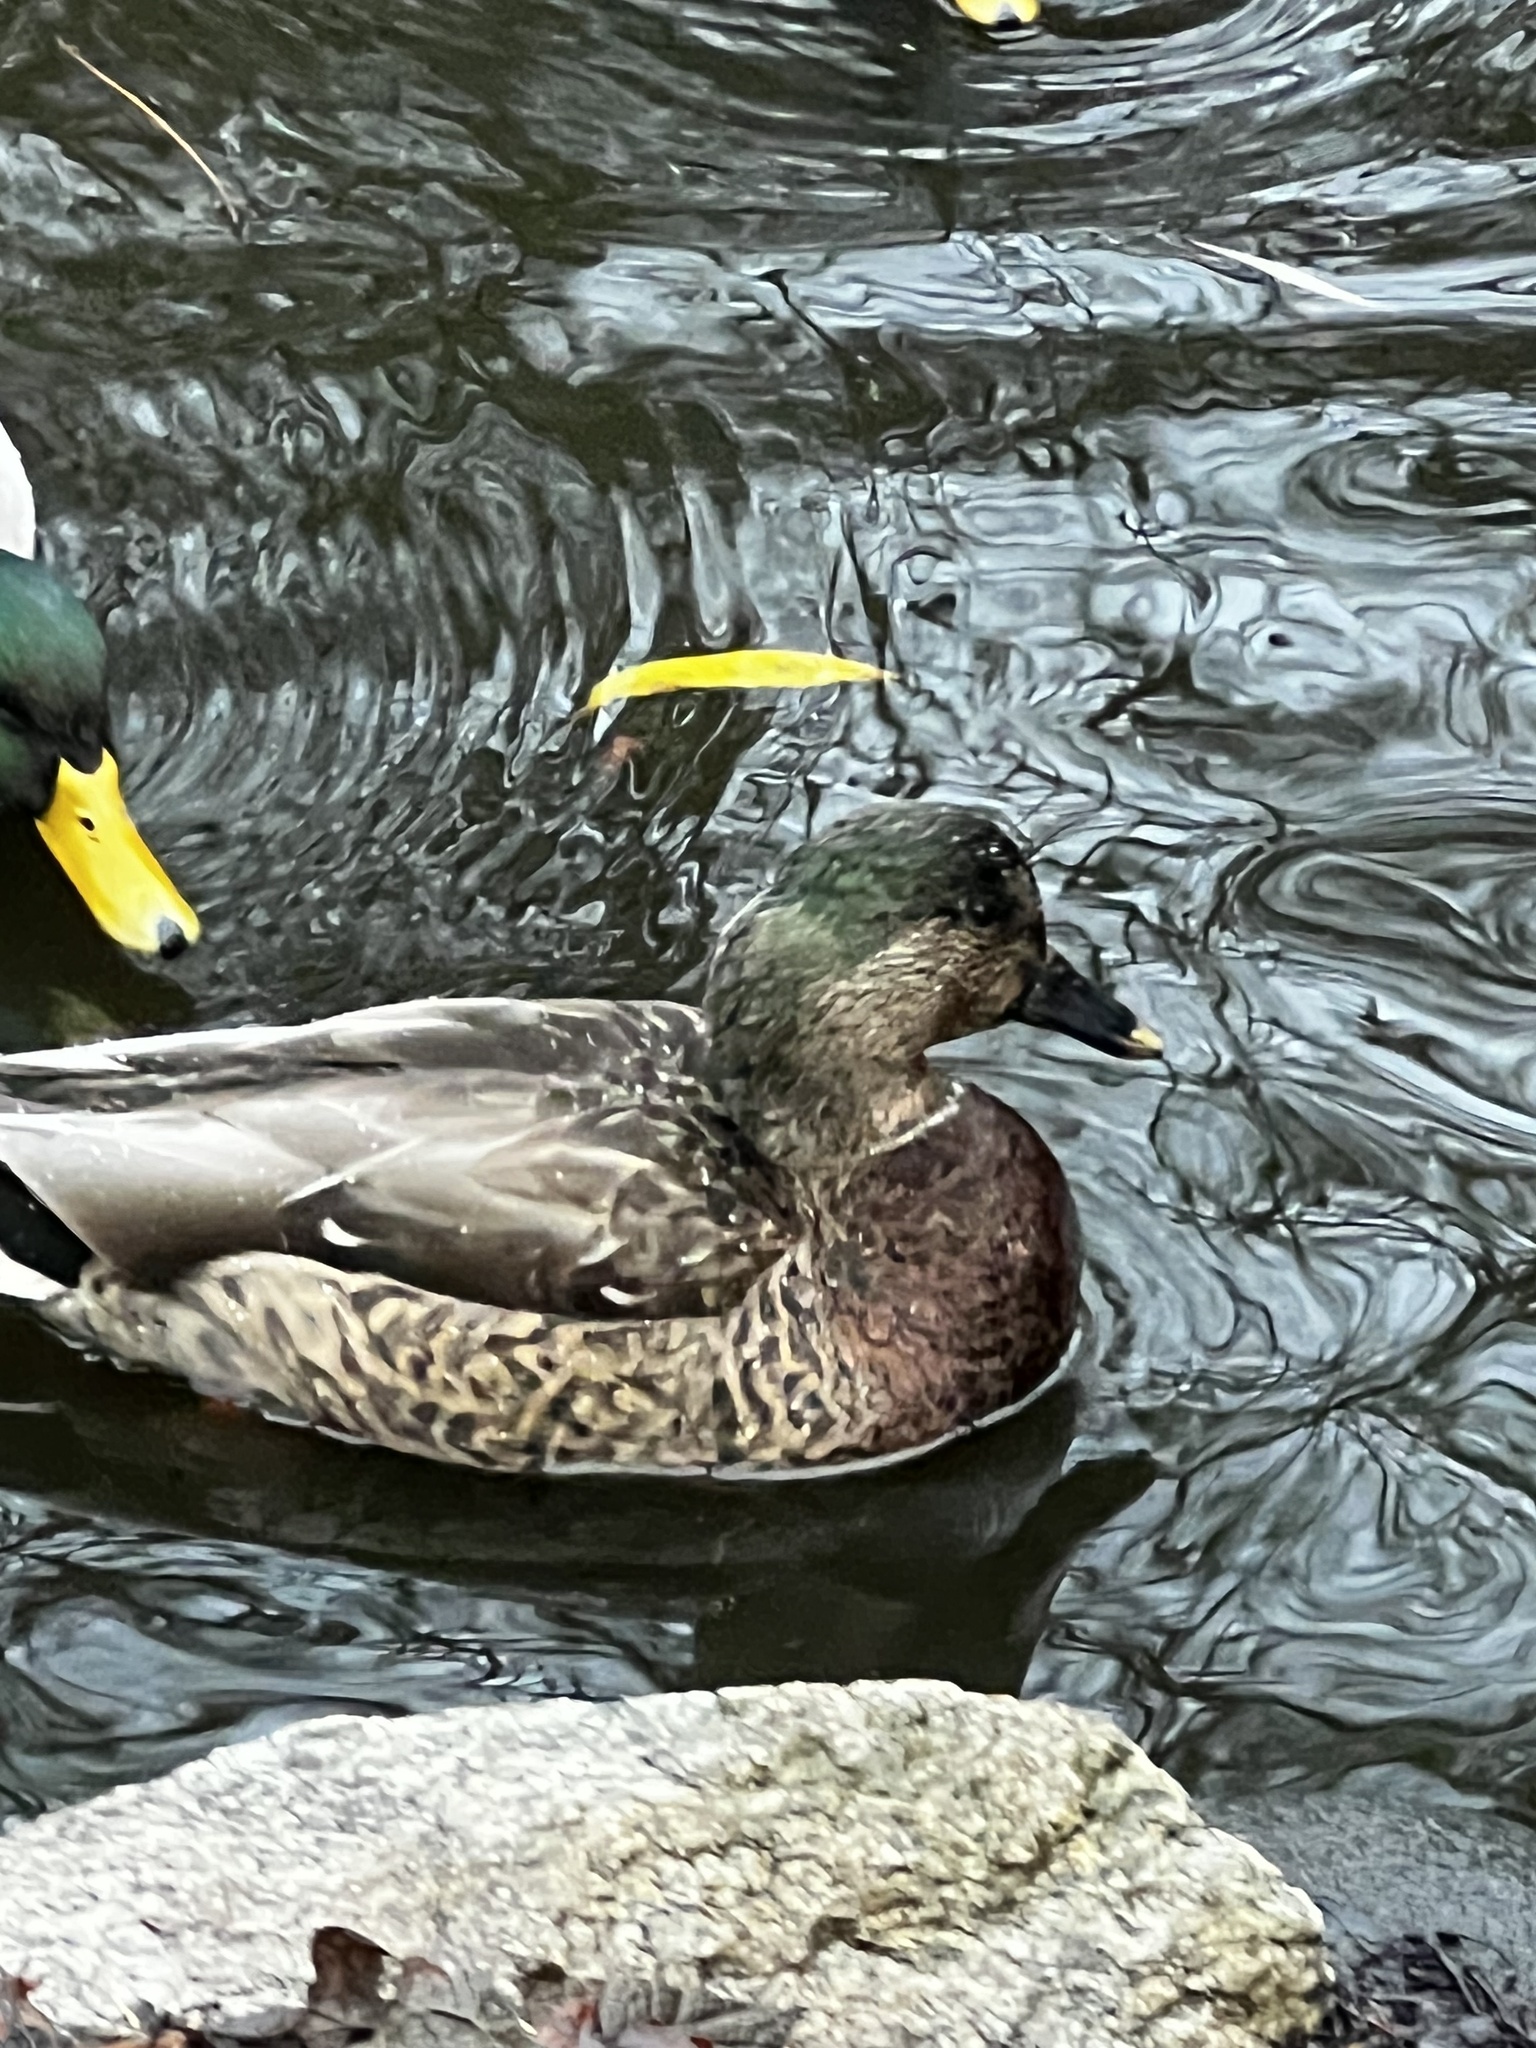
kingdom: Animalia
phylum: Chordata
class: Aves
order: Anseriformes
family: Anatidae
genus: Anas
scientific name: Anas platyrhynchos
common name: Mallard
